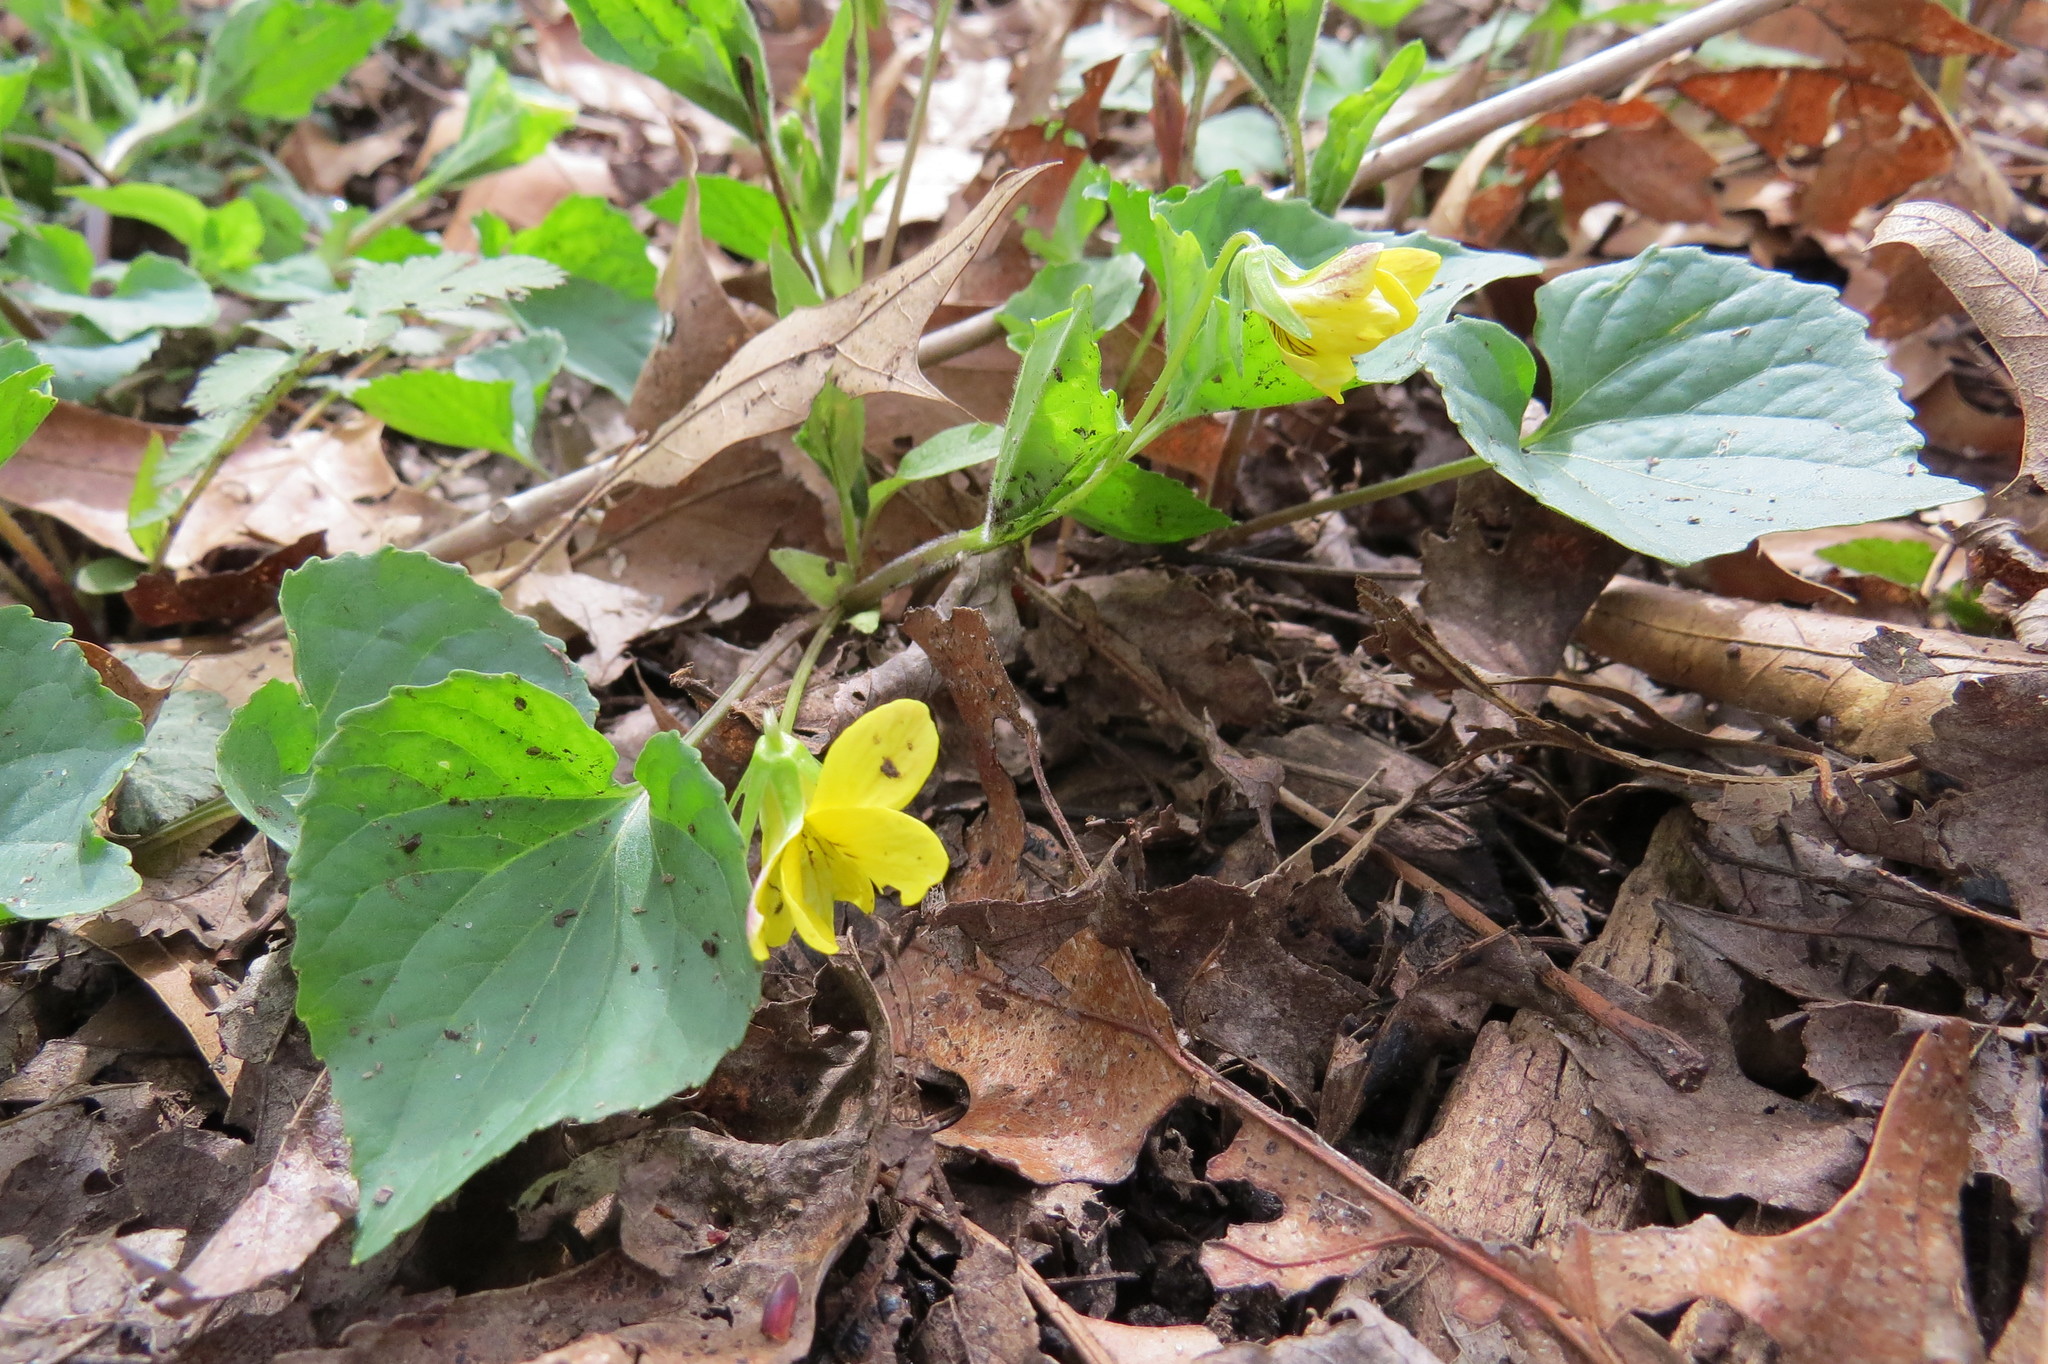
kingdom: Plantae
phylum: Tracheophyta
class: Magnoliopsida
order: Malpighiales
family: Violaceae
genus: Viola
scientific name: Viola eriocarpa
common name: Smooth yellow violet
